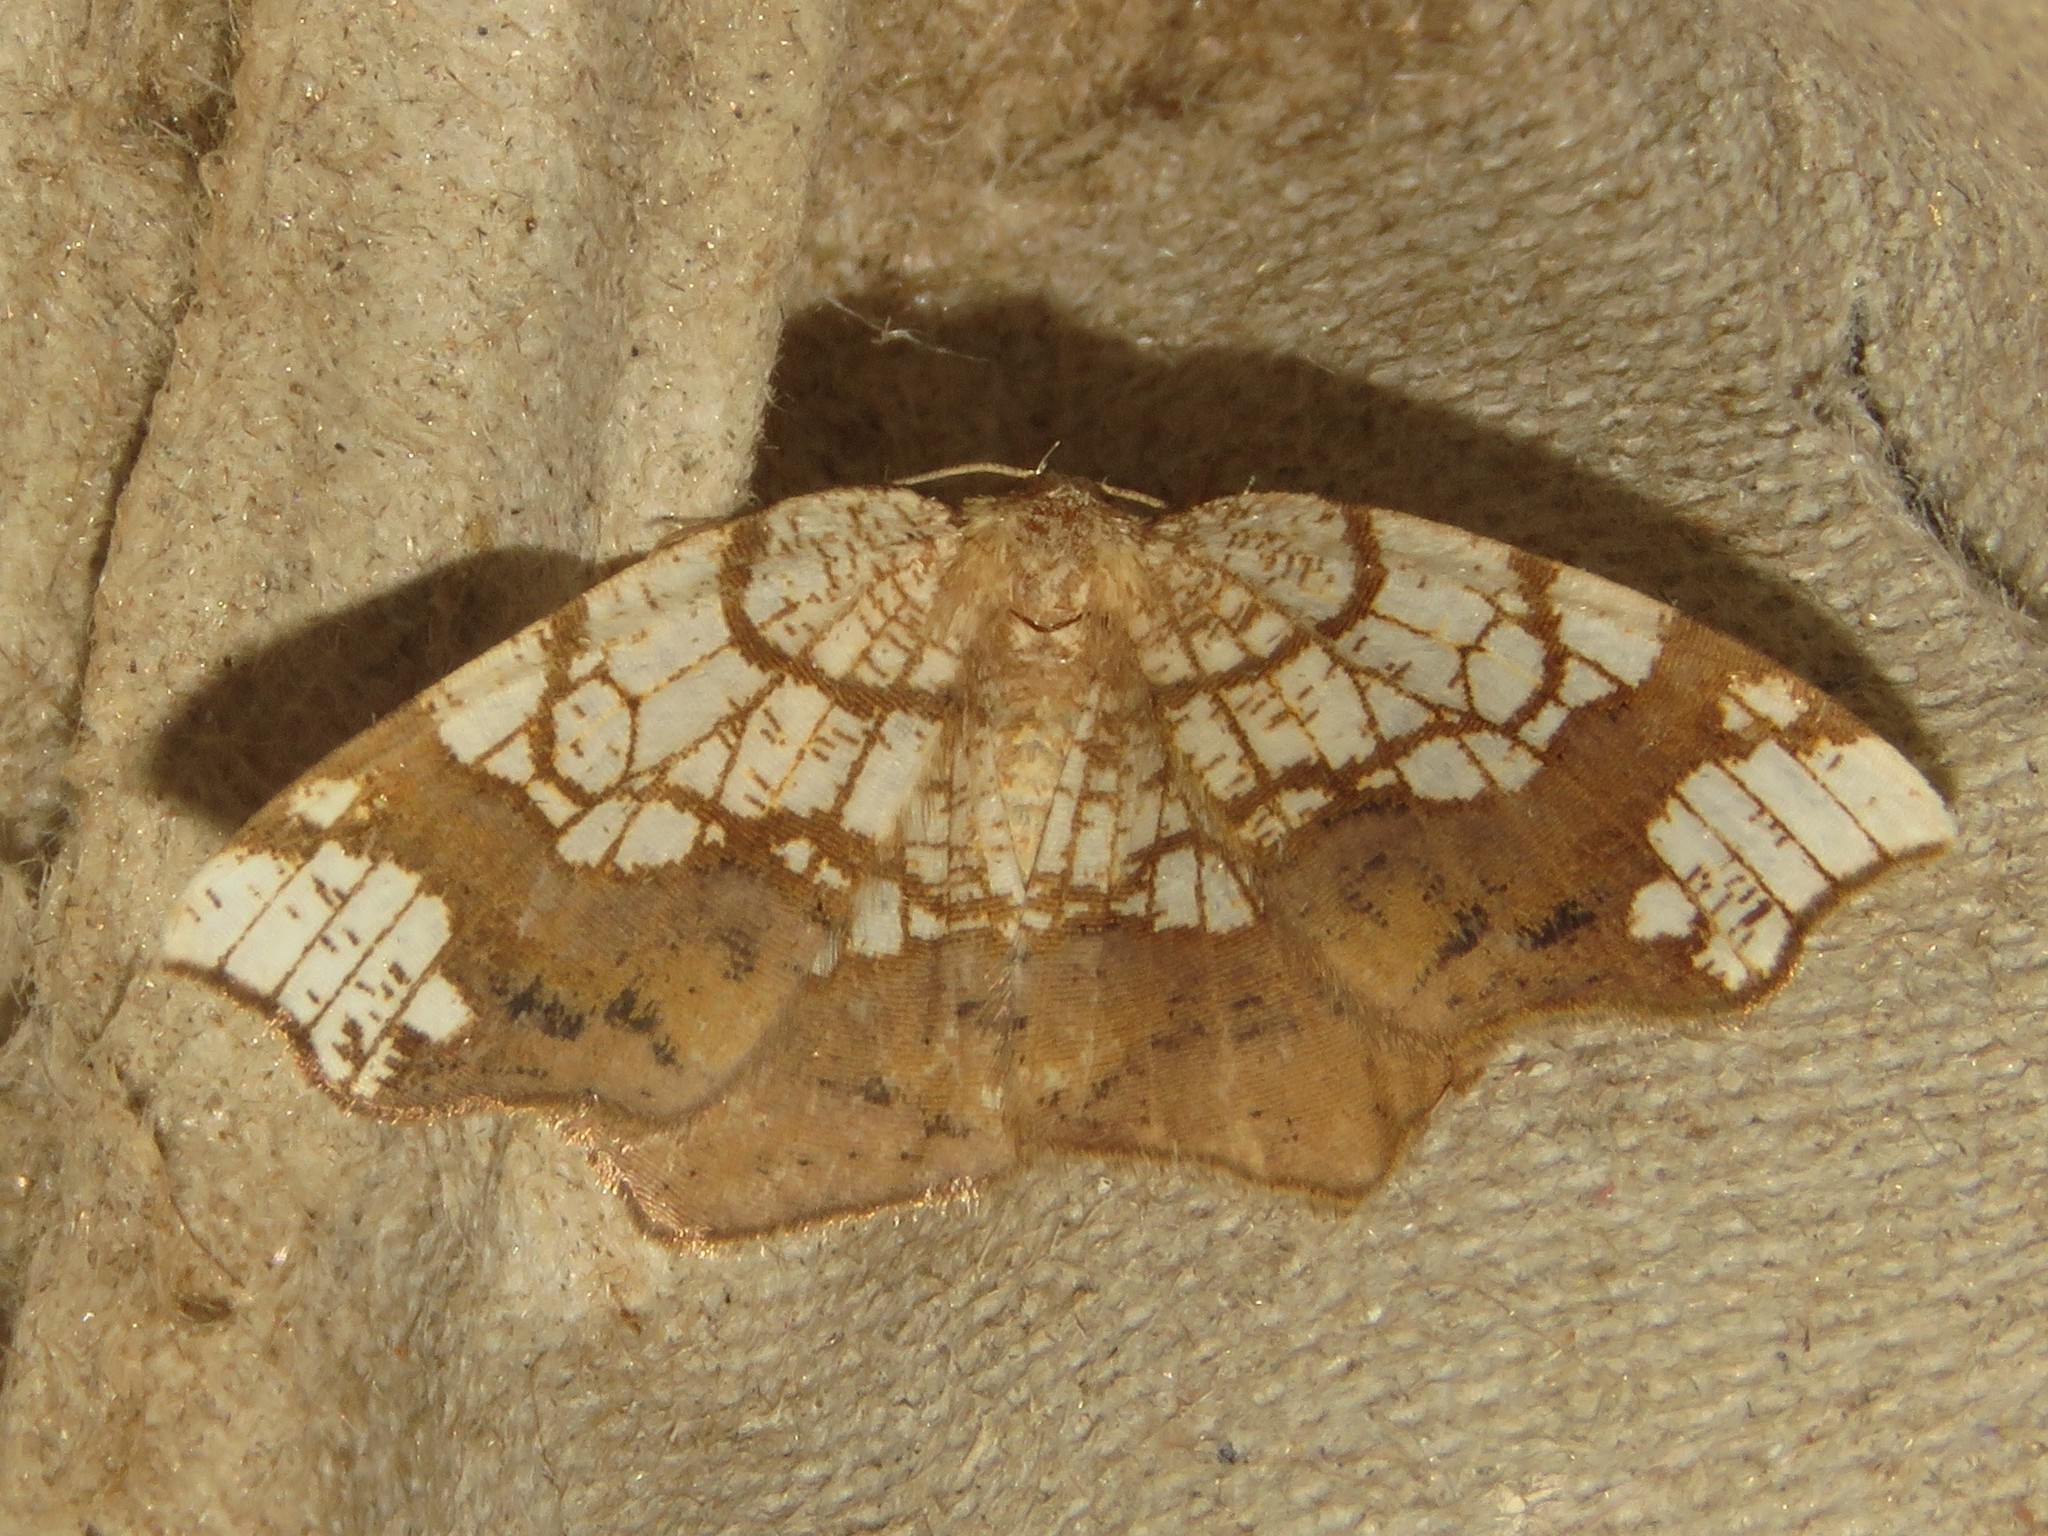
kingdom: Animalia
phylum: Arthropoda
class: Insecta
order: Lepidoptera
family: Geometridae
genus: Nematocampa
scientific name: Nematocampa resistaria
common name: Horned spanworm moth
